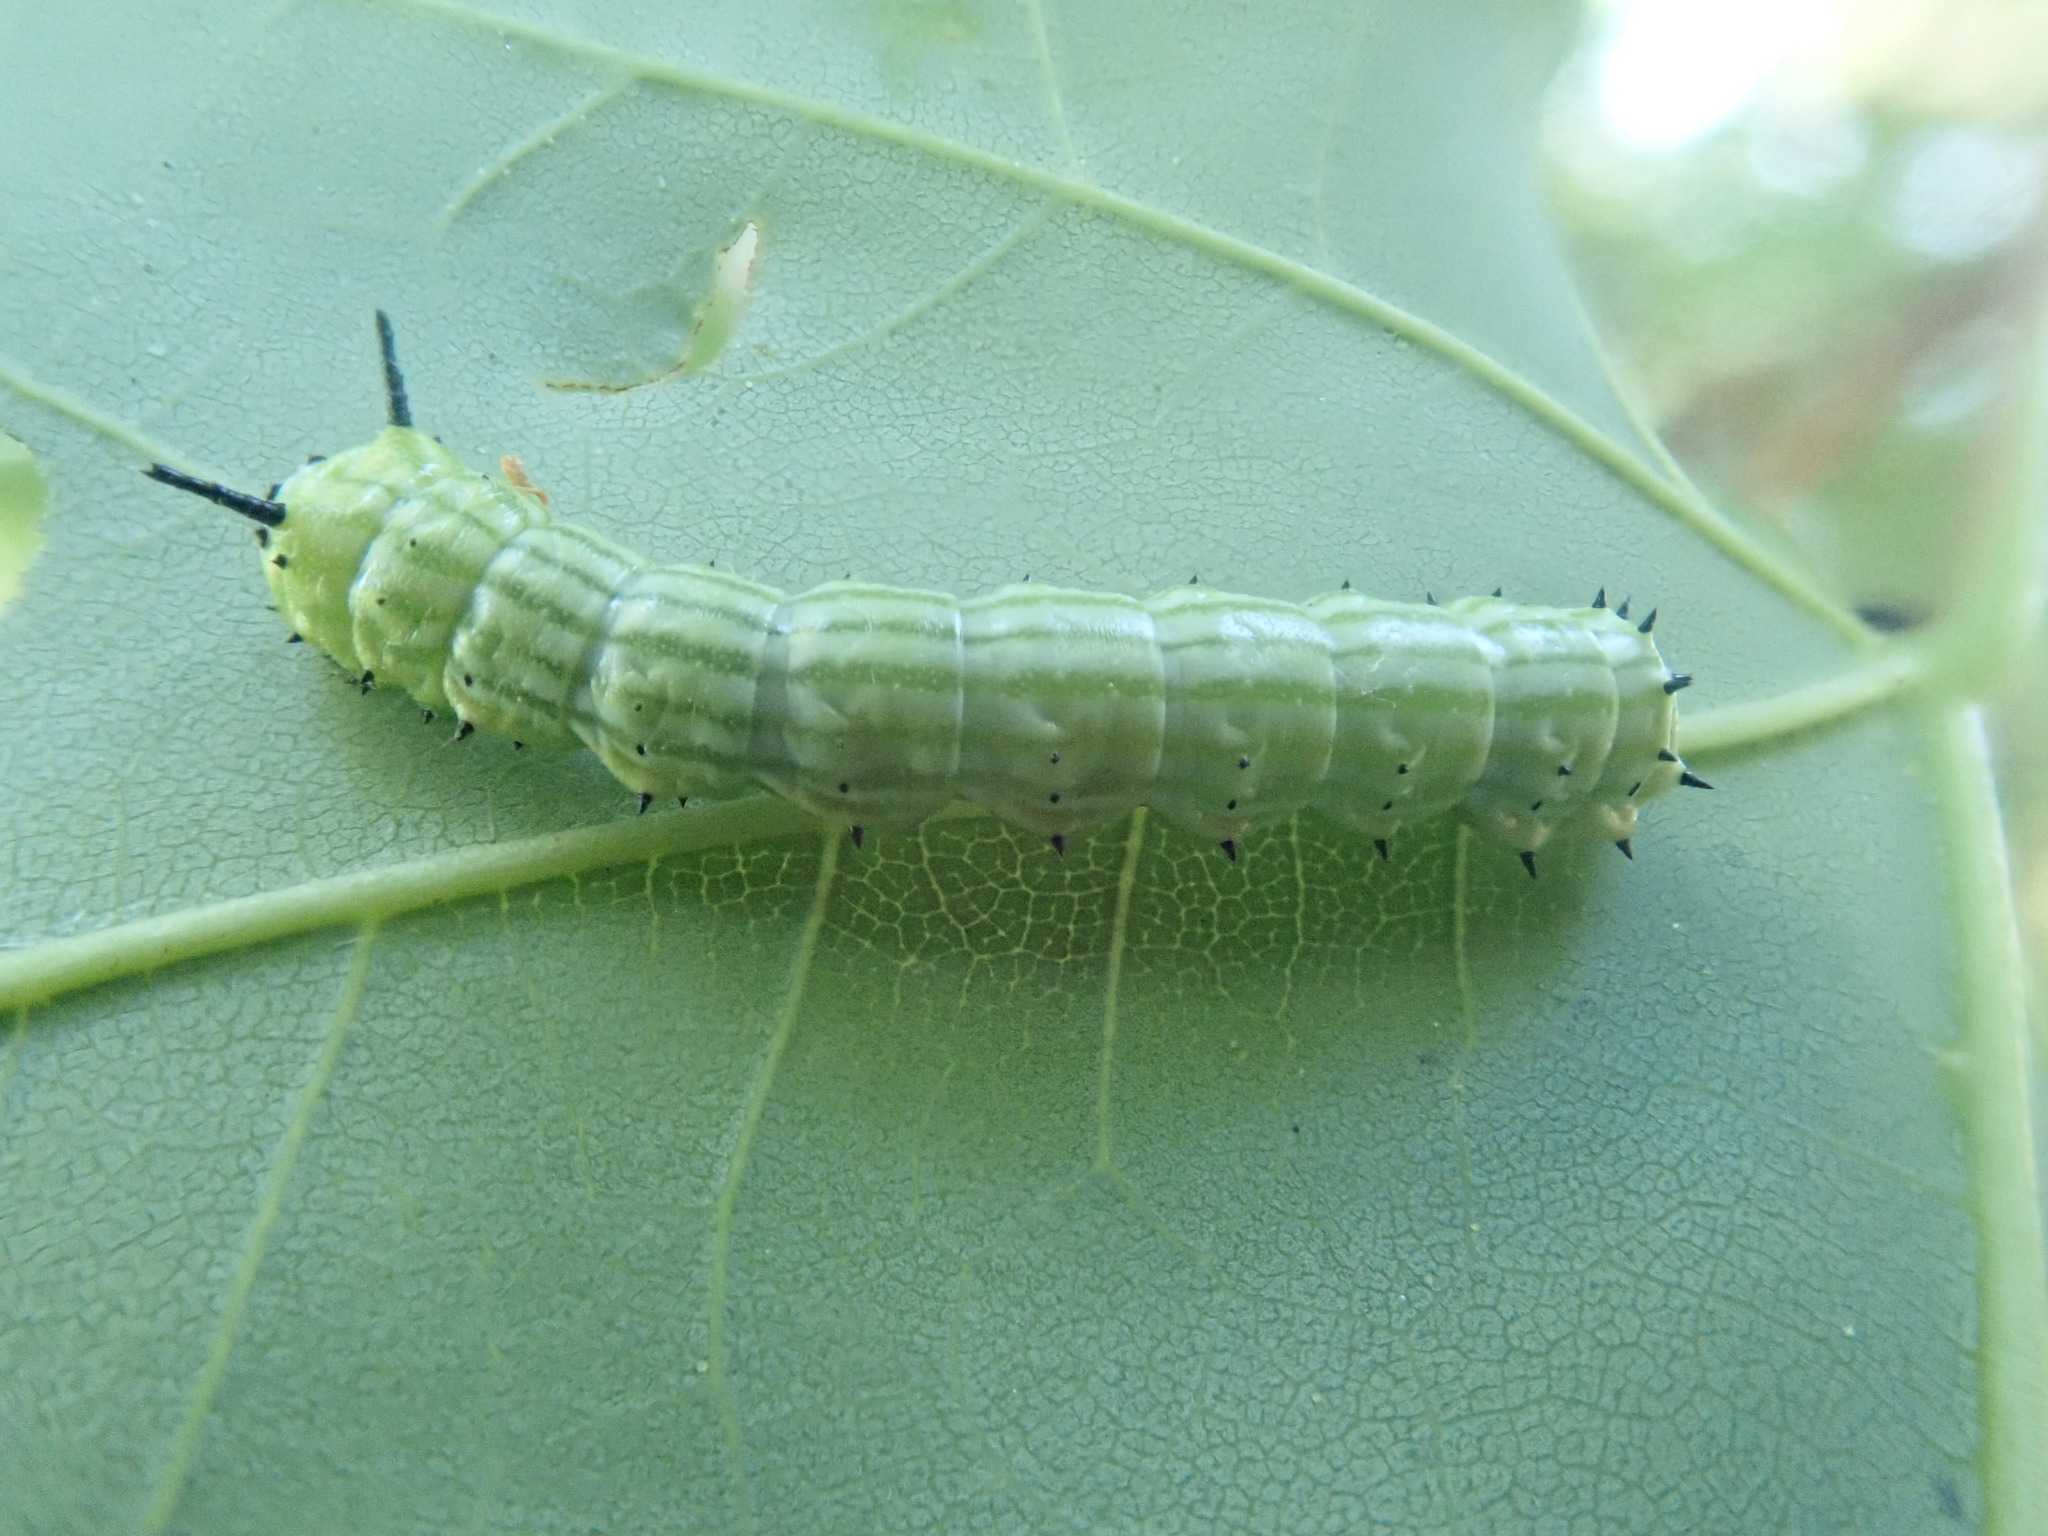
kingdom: Animalia
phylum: Arthropoda
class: Insecta
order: Lepidoptera
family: Saturniidae
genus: Dryocampa
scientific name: Dryocampa rubicunda
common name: Rosy maple moth
